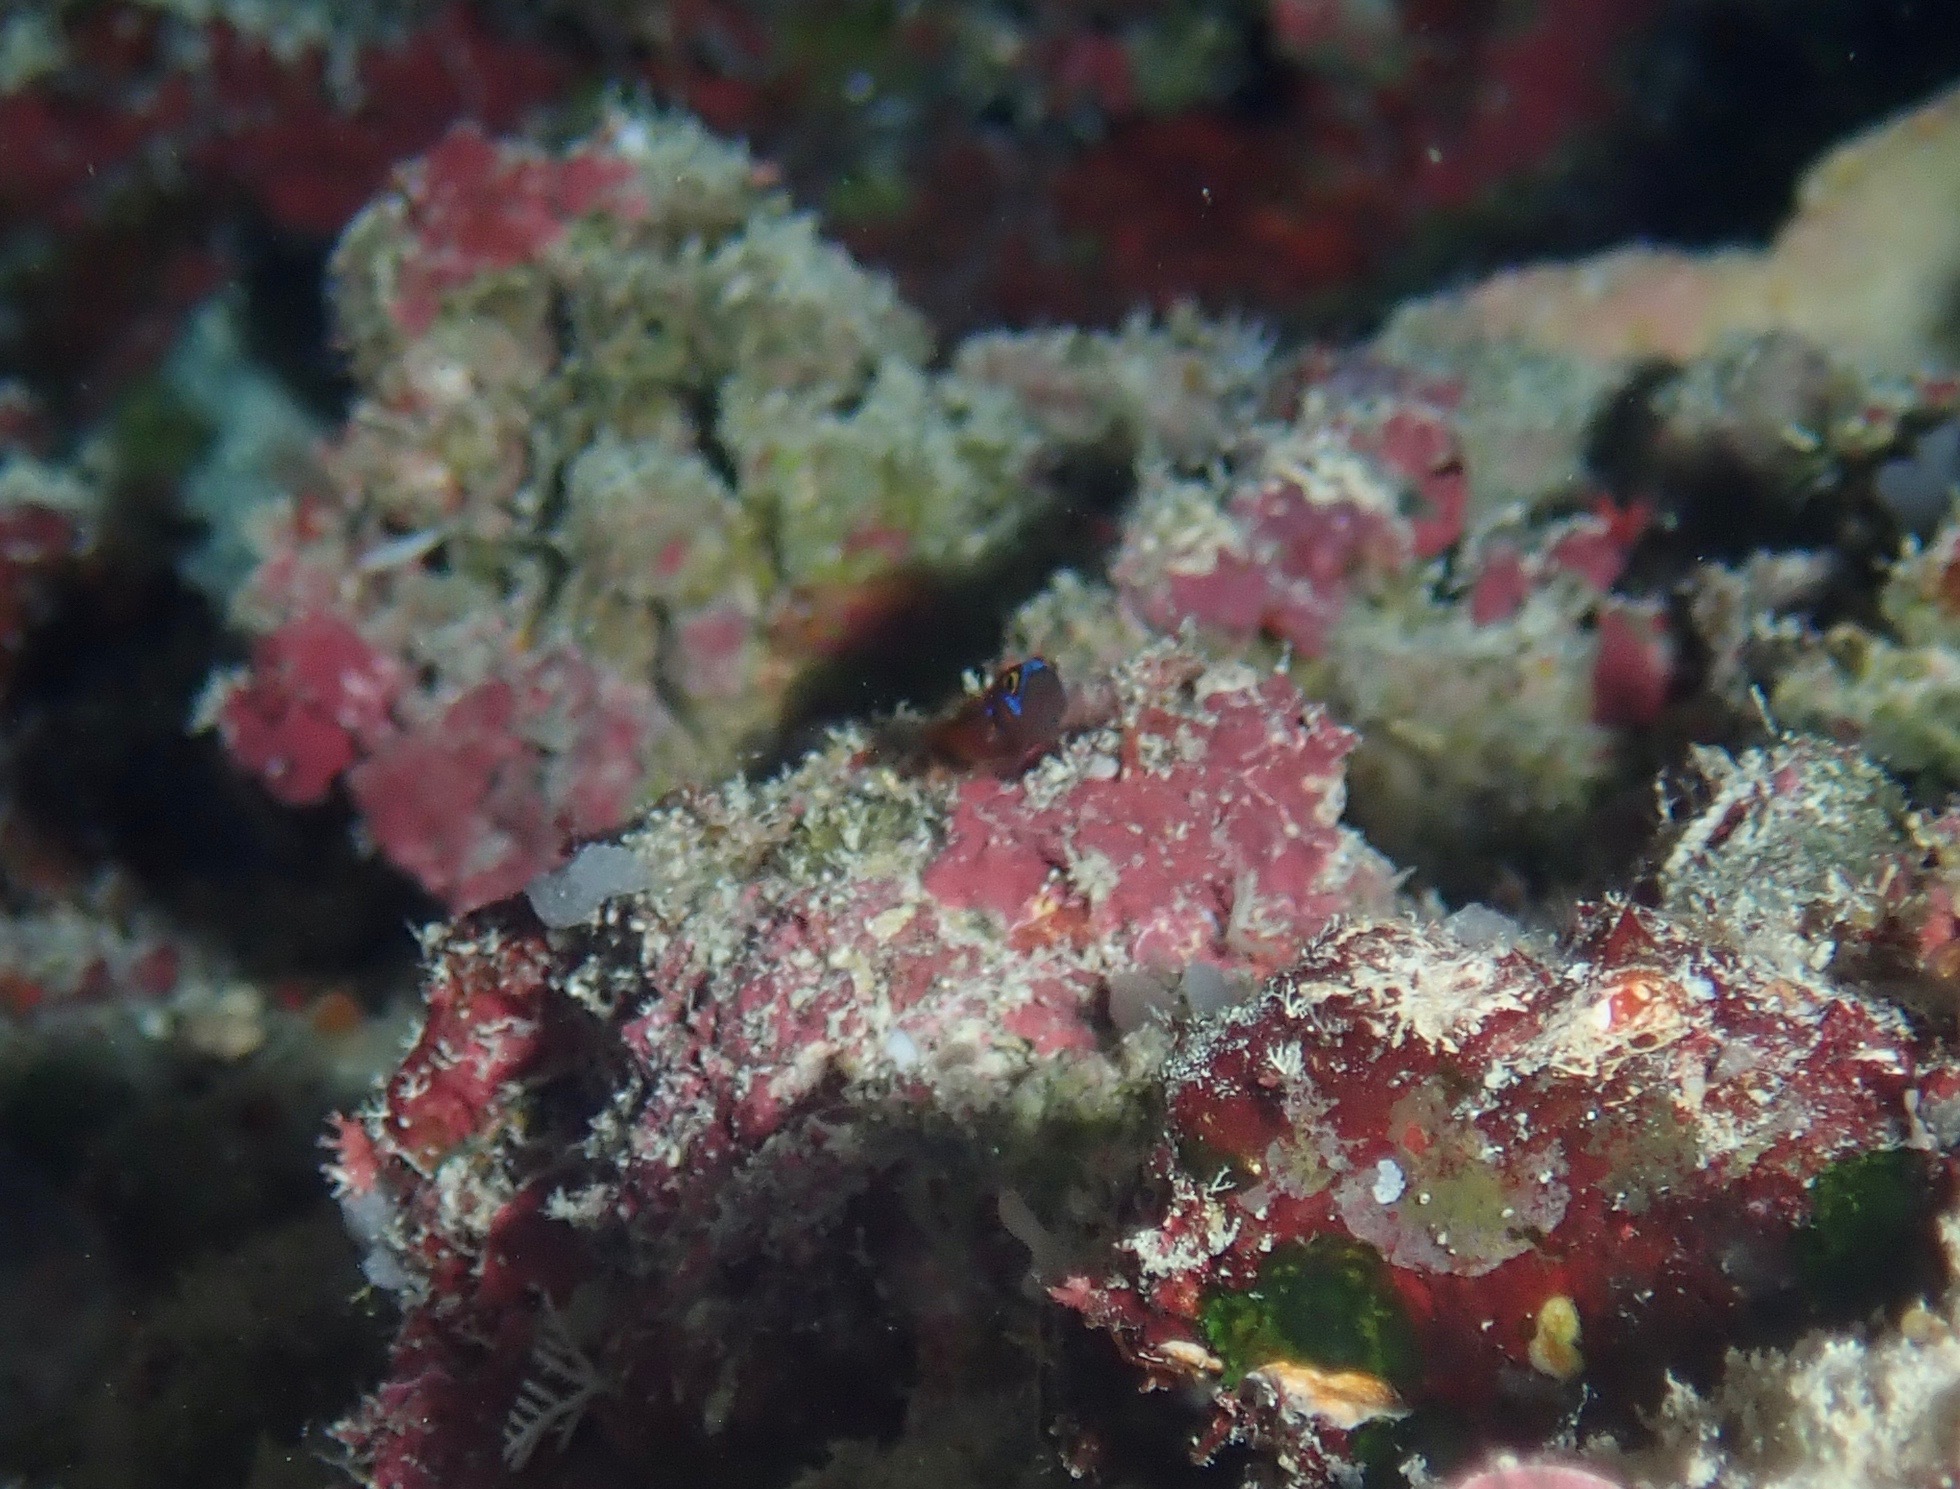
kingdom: Animalia
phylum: Chordata
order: Perciformes
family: Gobiidae
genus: Trimma
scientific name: Trimma maiandros
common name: Meander dwarfgoby
